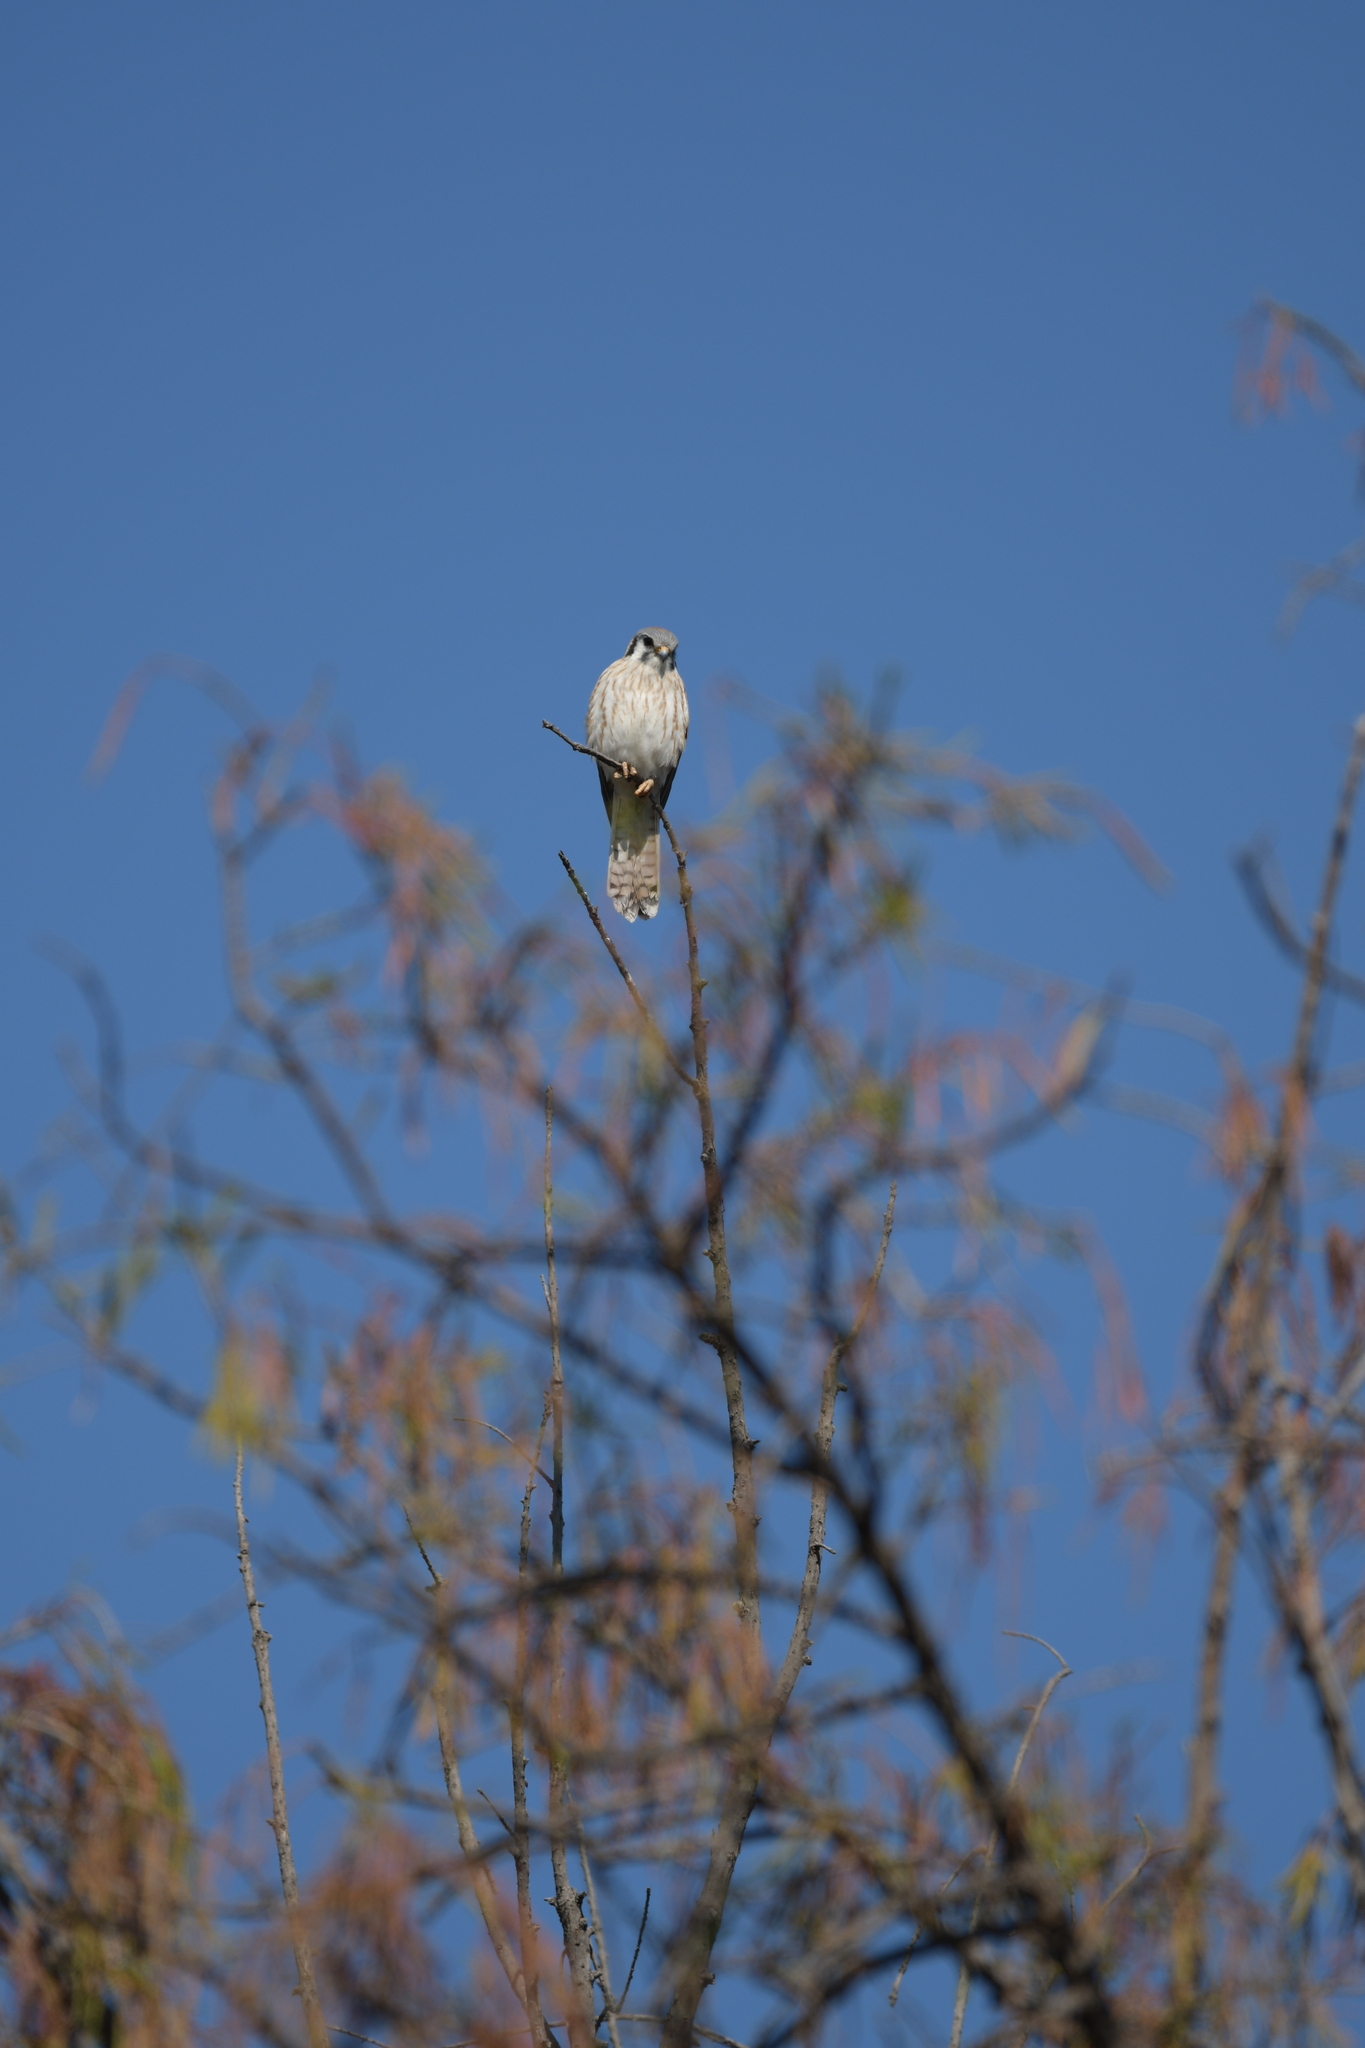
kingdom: Animalia
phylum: Chordata
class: Aves
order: Falconiformes
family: Falconidae
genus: Falco
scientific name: Falco sparverius
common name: American kestrel
